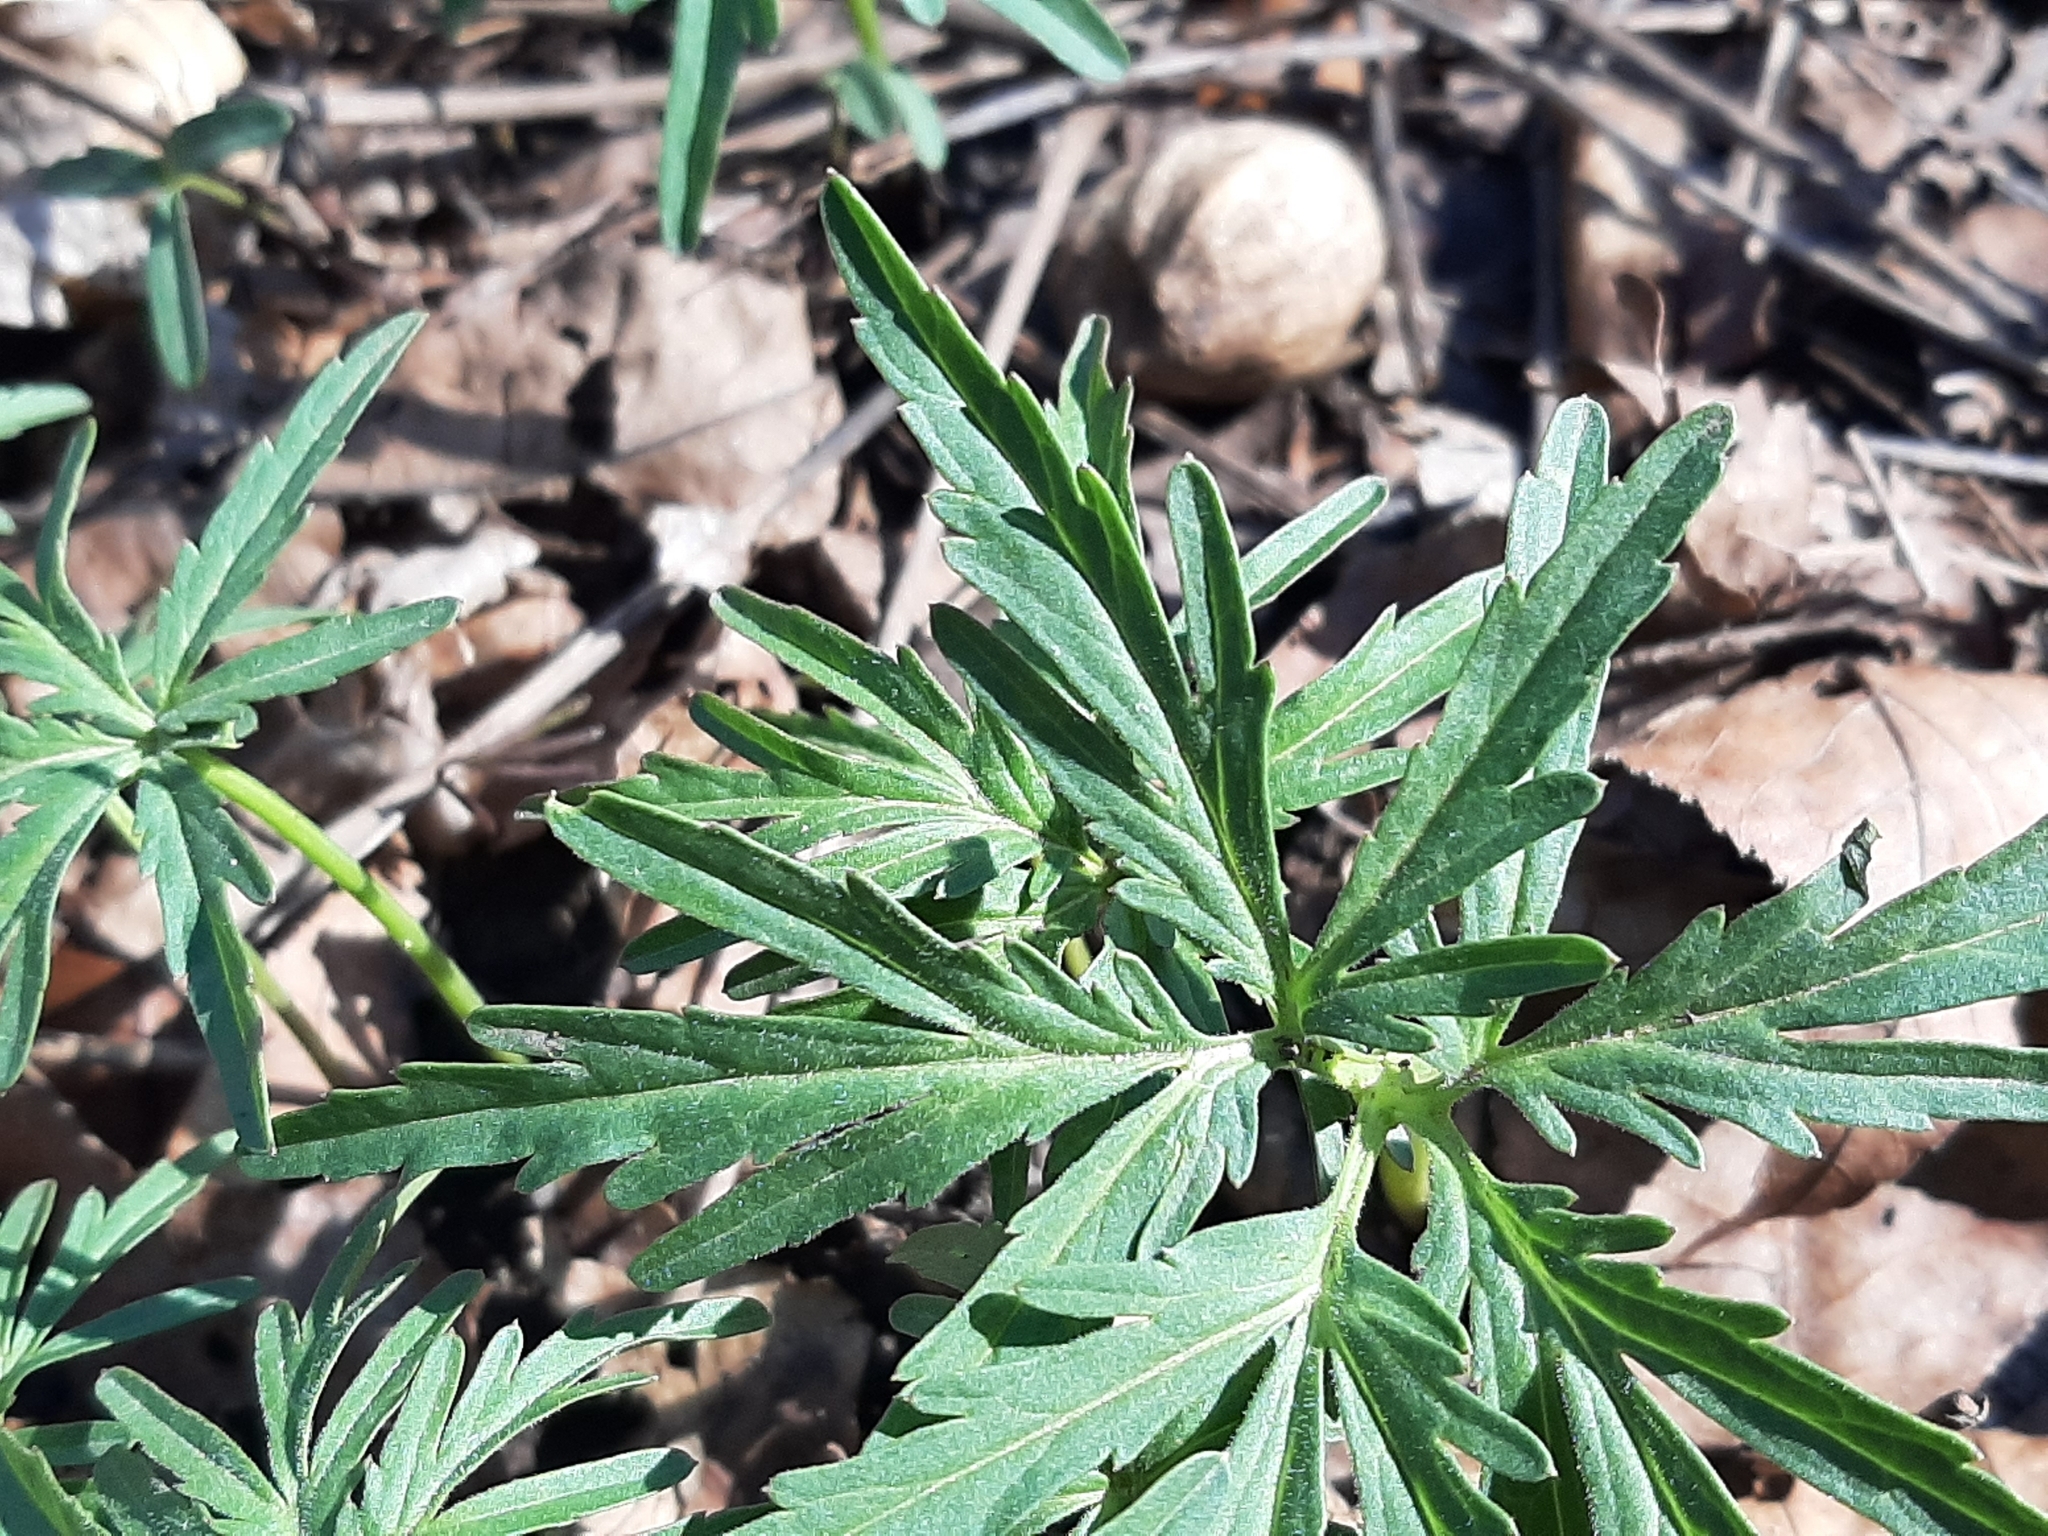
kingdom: Plantae
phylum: Tracheophyta
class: Magnoliopsida
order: Brassicales
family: Brassicaceae
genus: Cardamine
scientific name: Cardamine concatenata
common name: Cut-leaf toothcup
